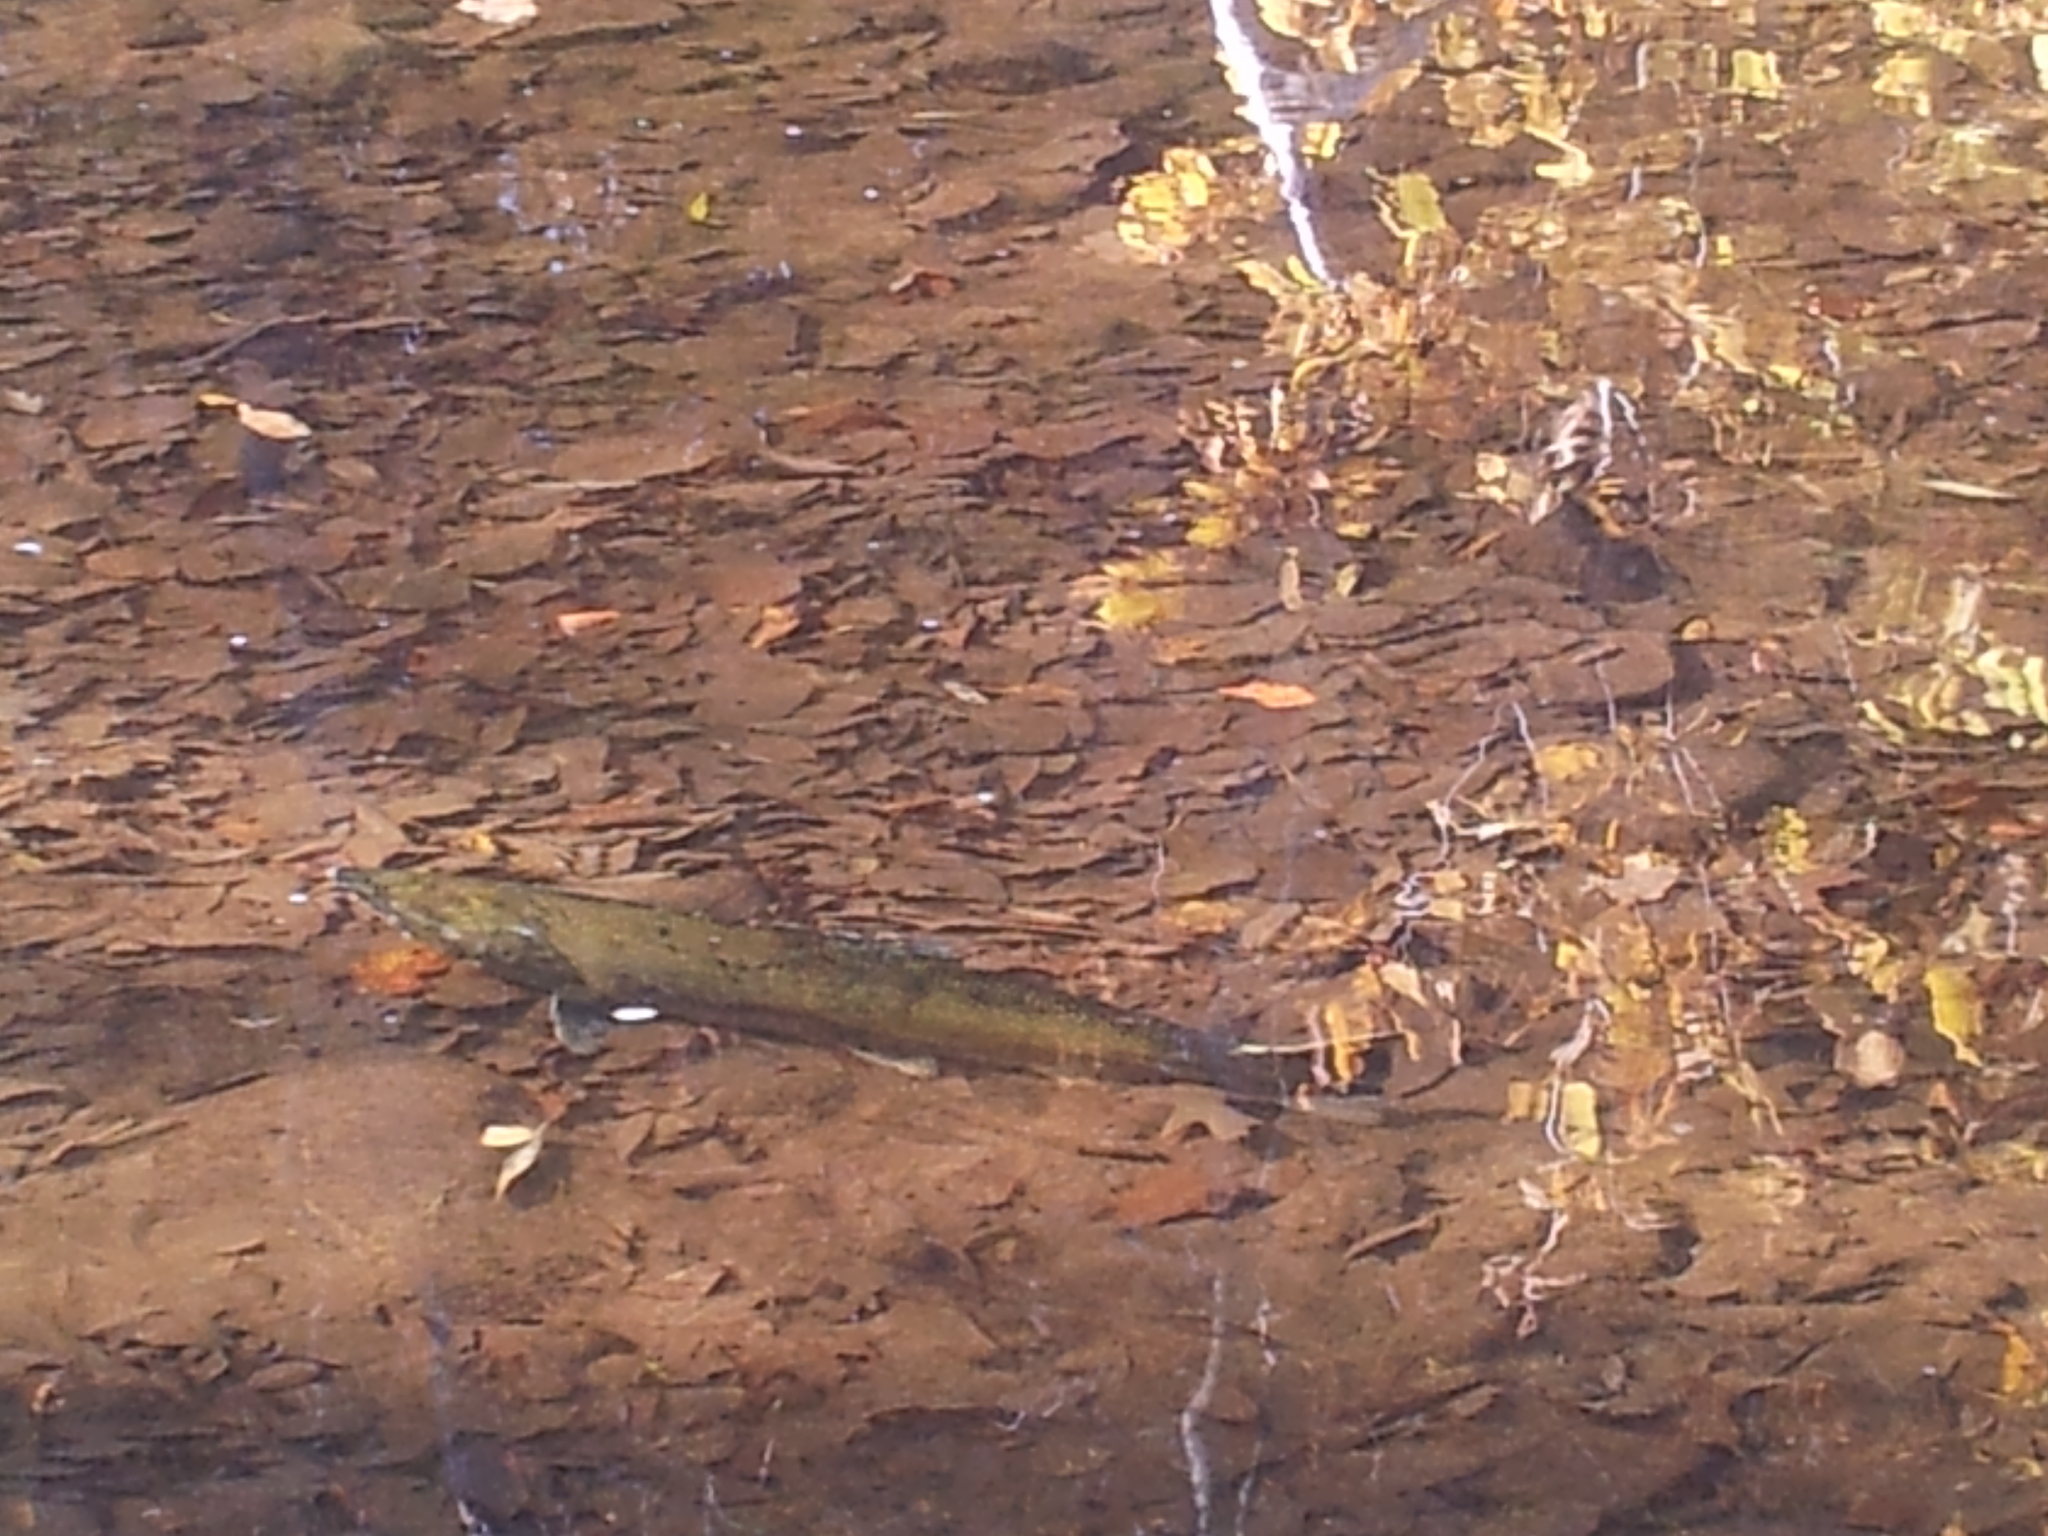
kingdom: Animalia
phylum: Chordata
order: Salmoniformes
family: Salmonidae
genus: Oncorhynchus
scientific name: Oncorhynchus tshawytscha
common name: Chinook salmon
